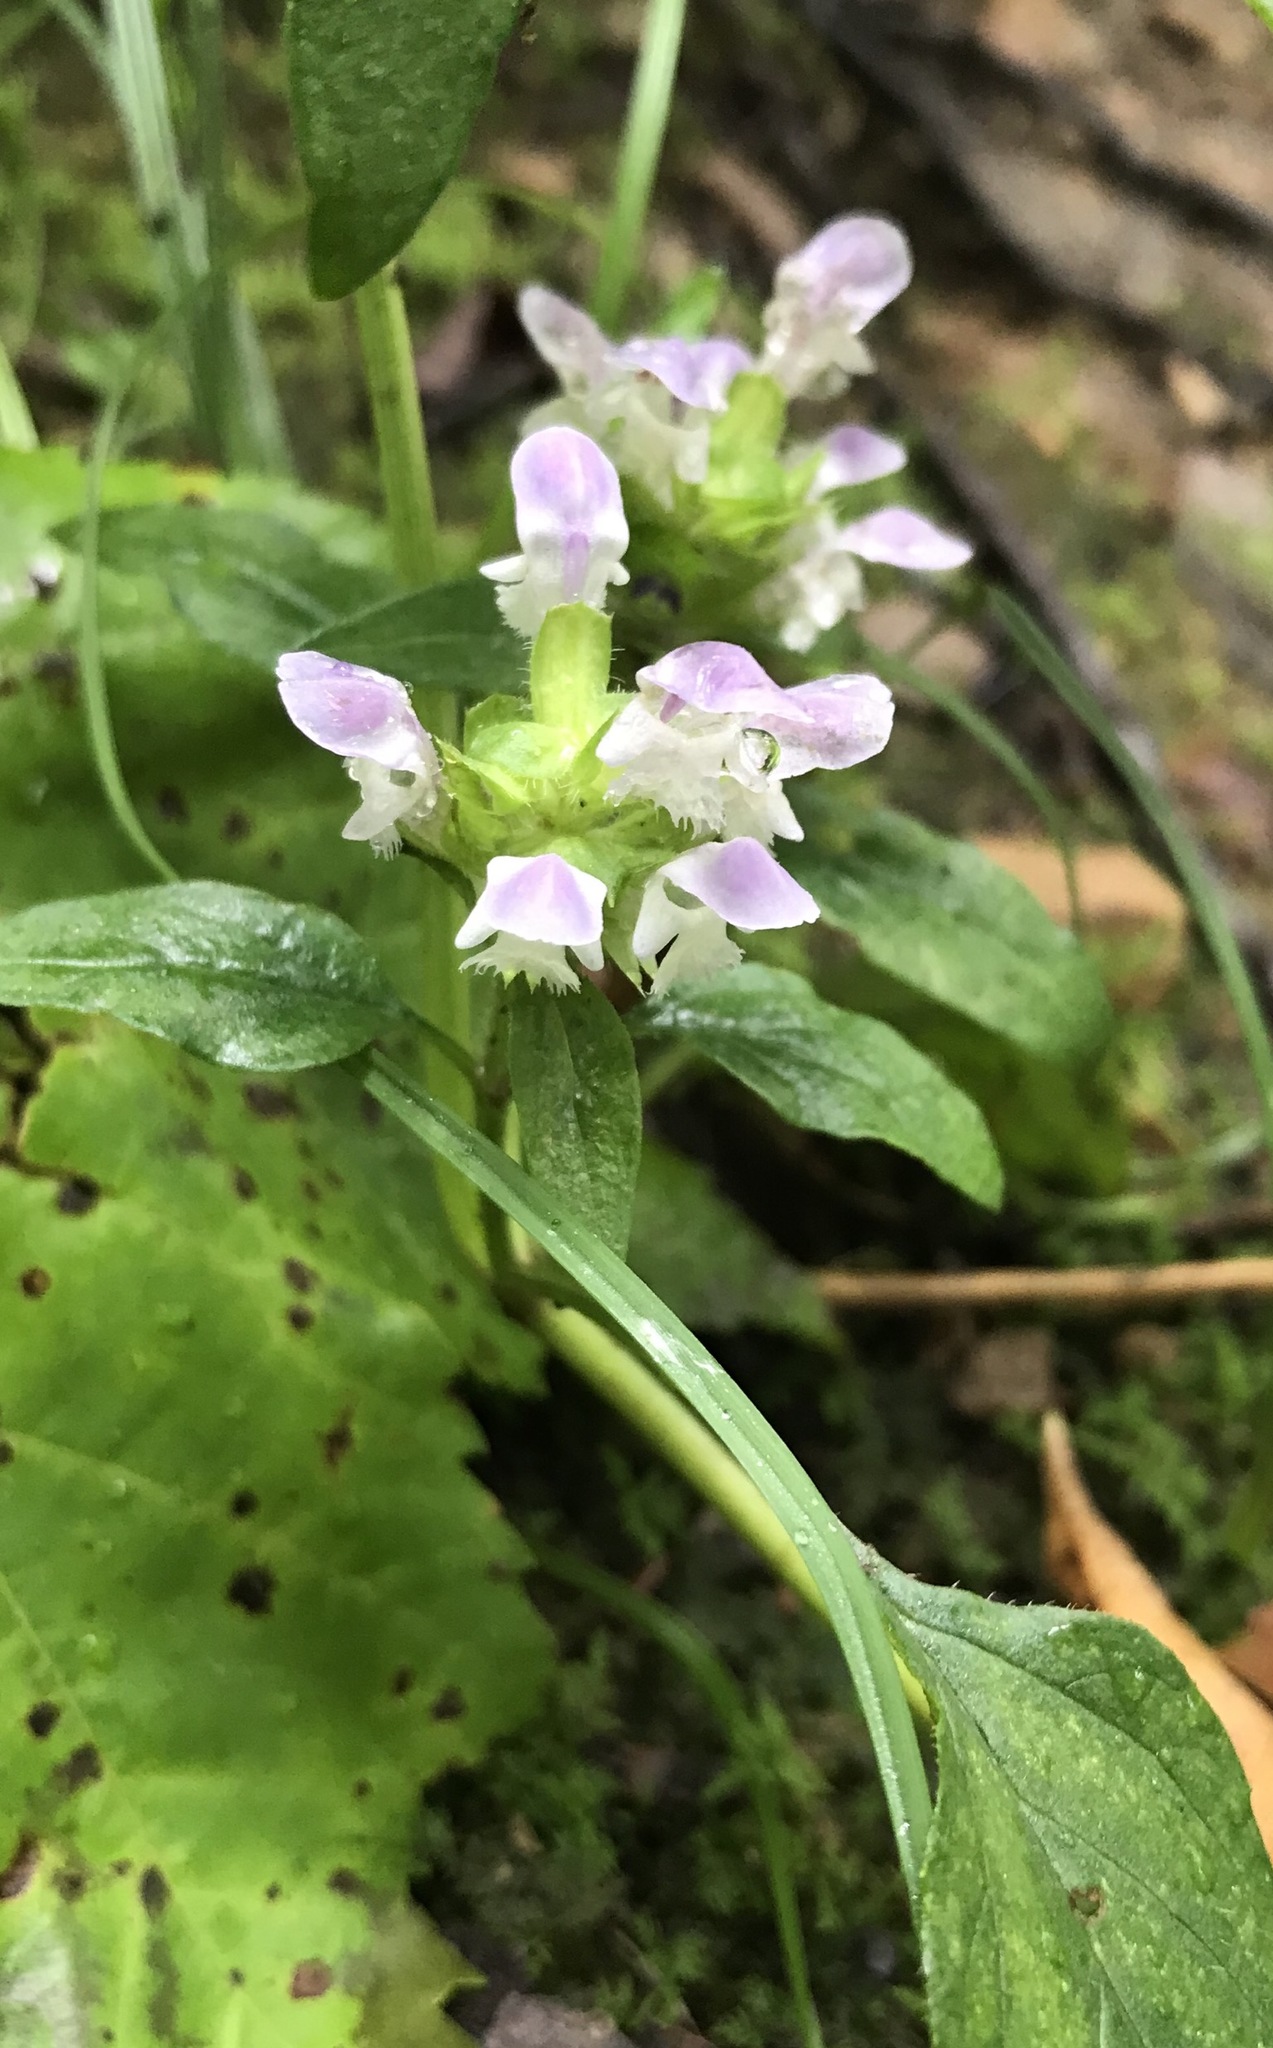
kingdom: Plantae
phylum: Tracheophyta
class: Magnoliopsida
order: Lamiales
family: Lamiaceae
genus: Prunella
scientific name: Prunella vulgaris
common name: Heal-all
